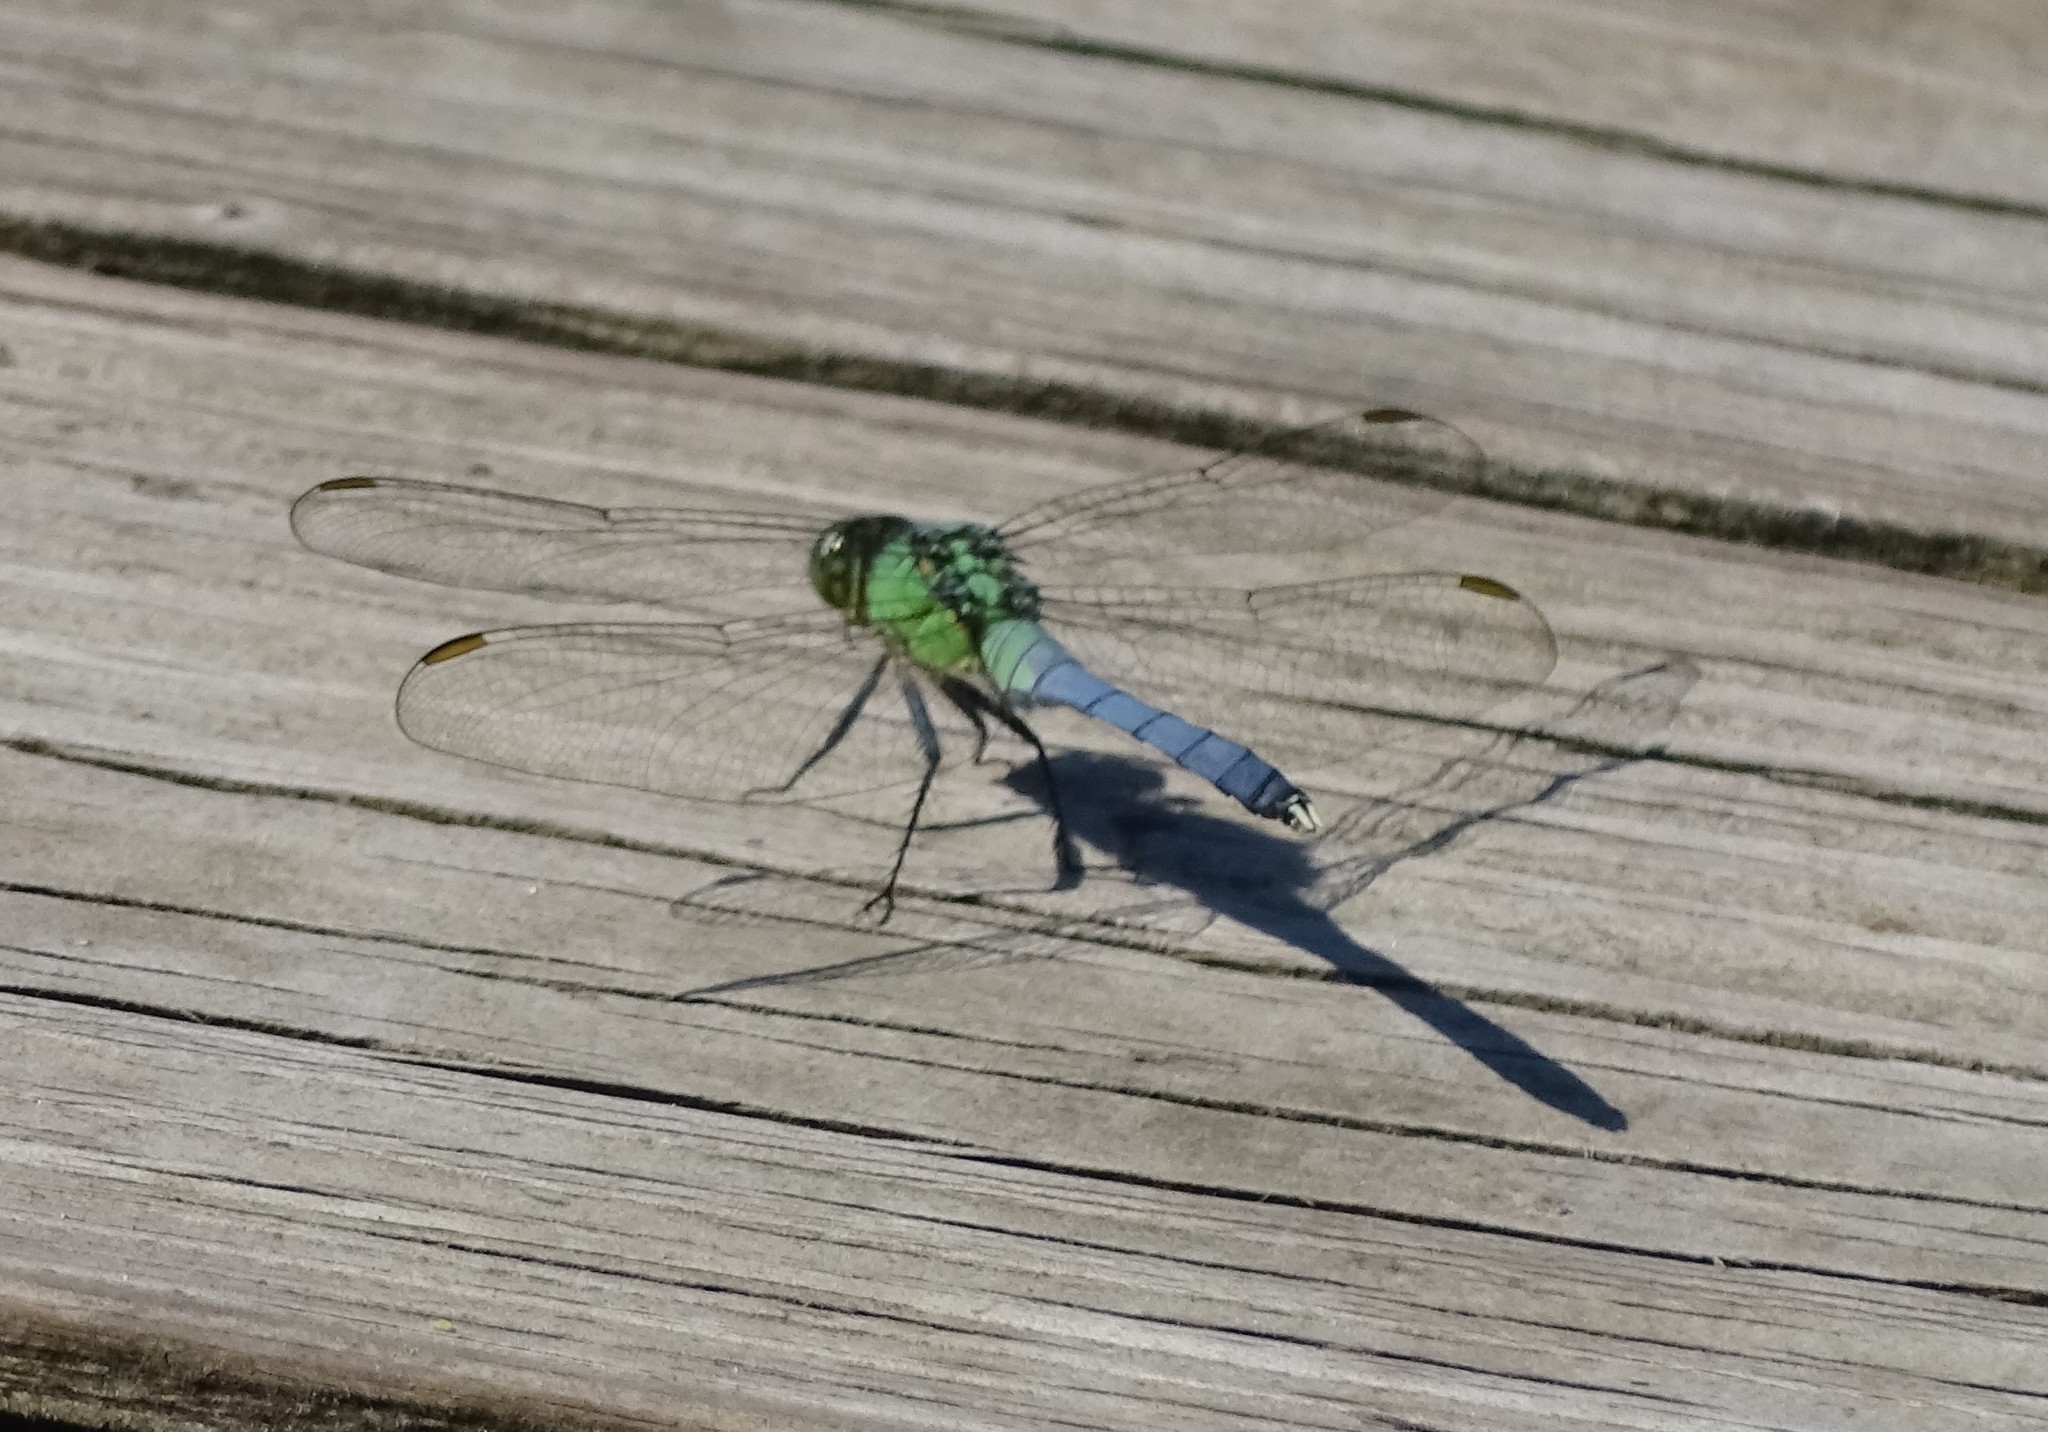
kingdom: Animalia
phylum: Arthropoda
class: Insecta
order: Odonata
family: Libellulidae
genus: Erythemis
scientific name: Erythemis simplicicollis
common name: Eastern pondhawk
